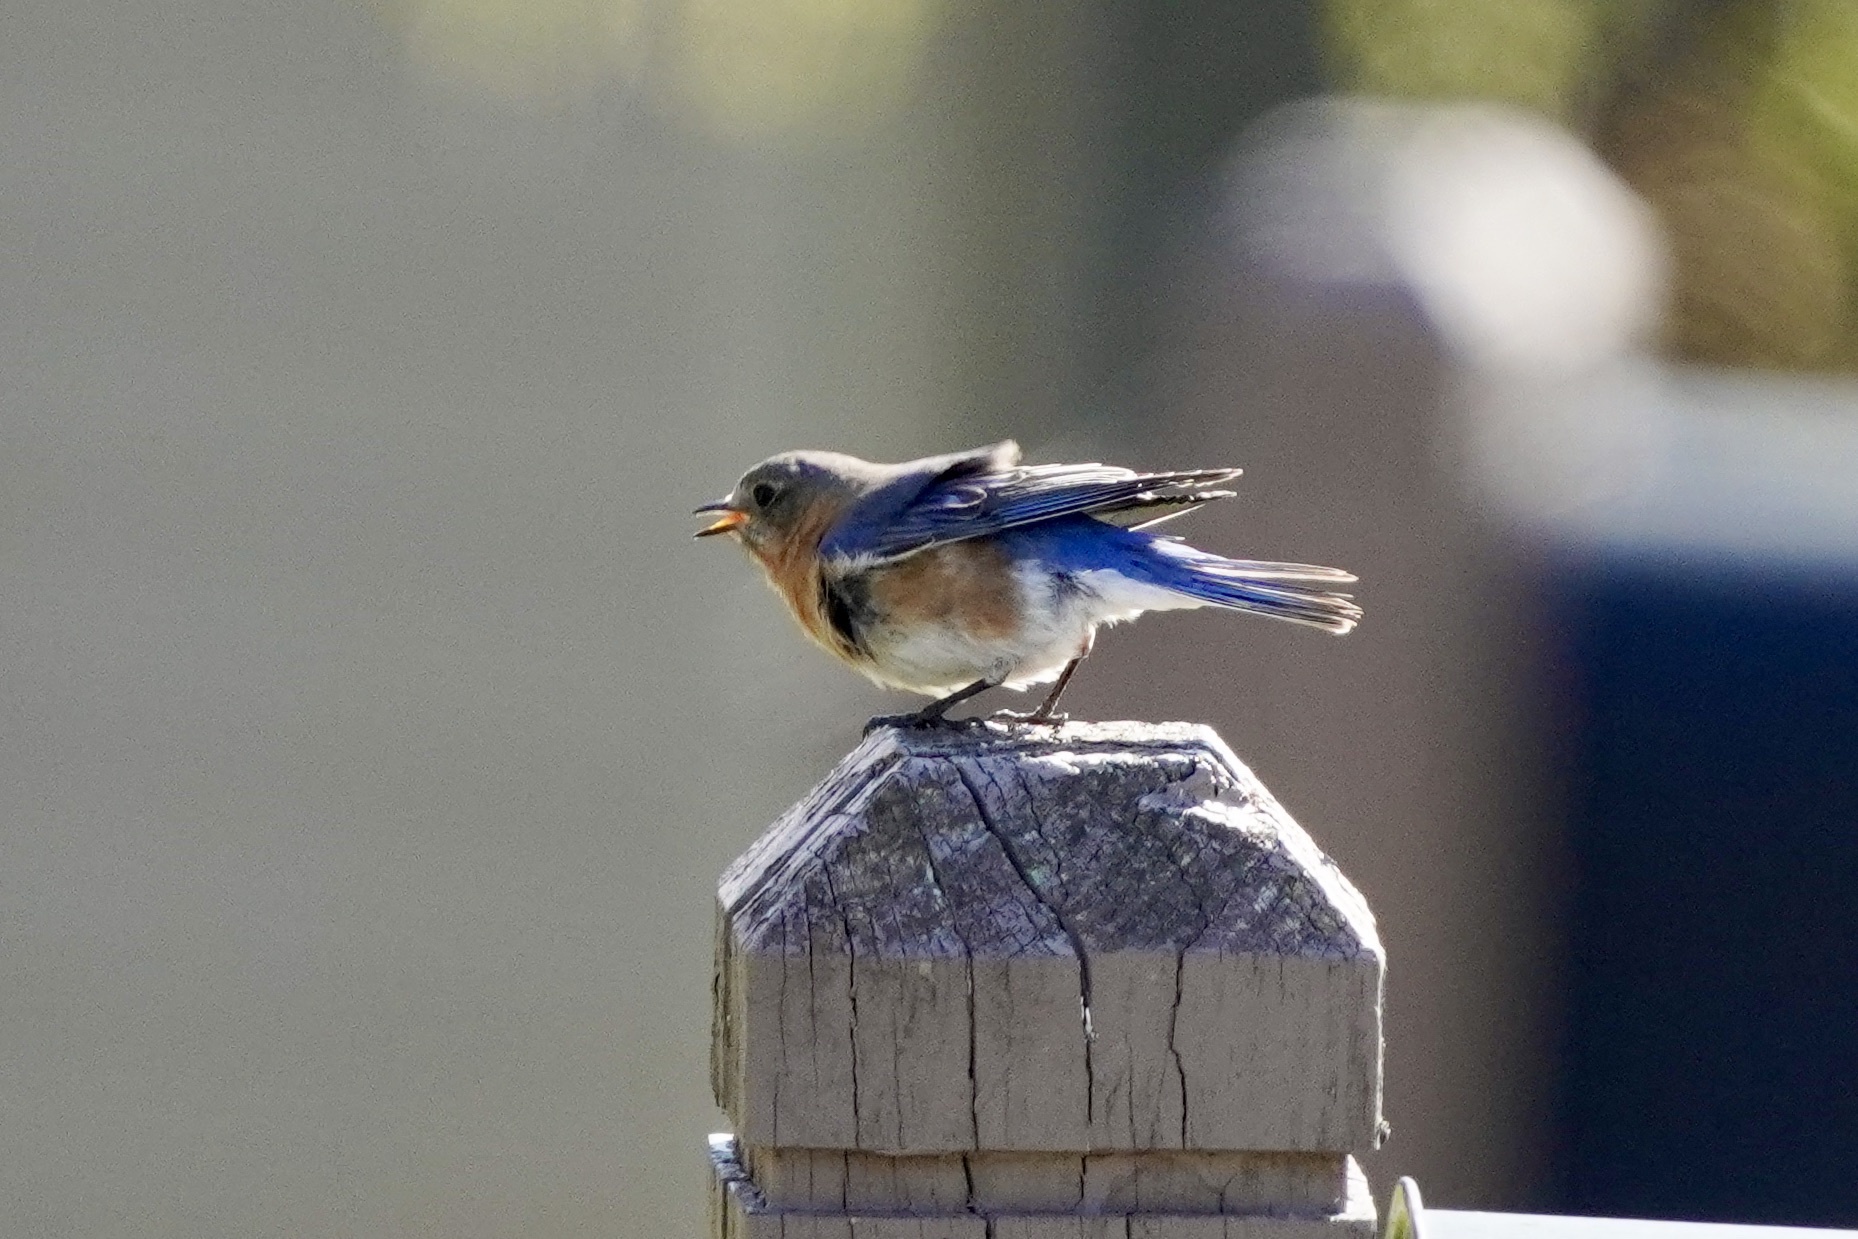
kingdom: Animalia
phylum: Chordata
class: Aves
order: Passeriformes
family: Turdidae
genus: Sialia
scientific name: Sialia sialis
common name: Eastern bluebird
